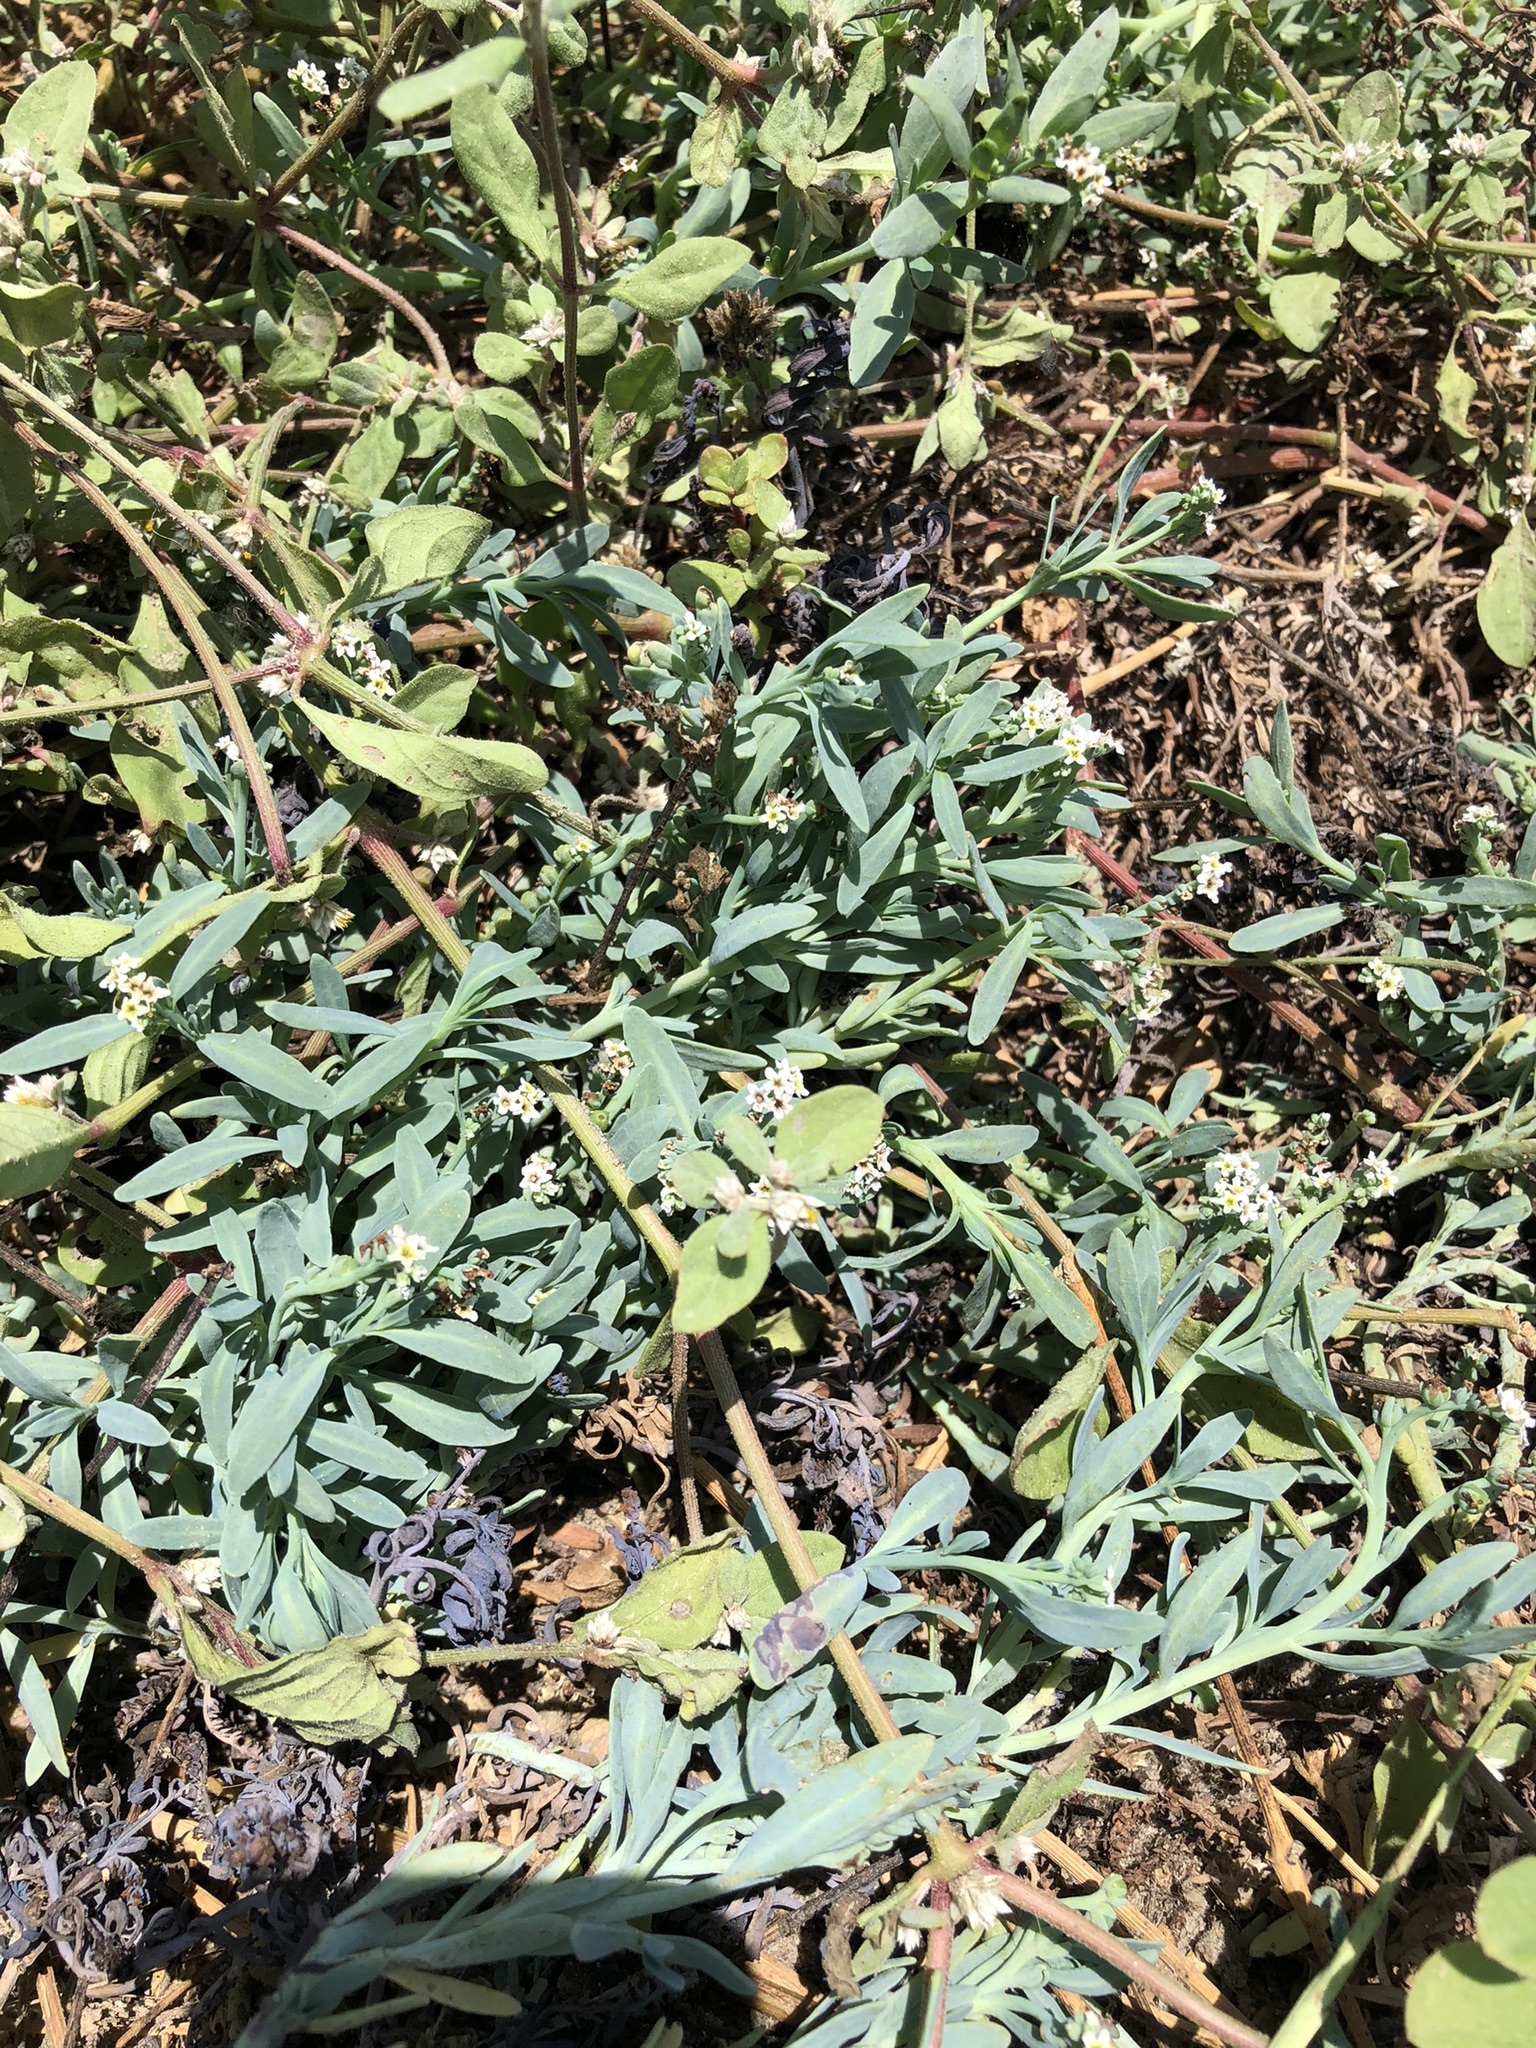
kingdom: Plantae
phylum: Tracheophyta
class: Magnoliopsida
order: Boraginales
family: Heliotropiaceae
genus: Heliotropium
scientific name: Heliotropium curassavicum
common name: Seaside heliotrope
